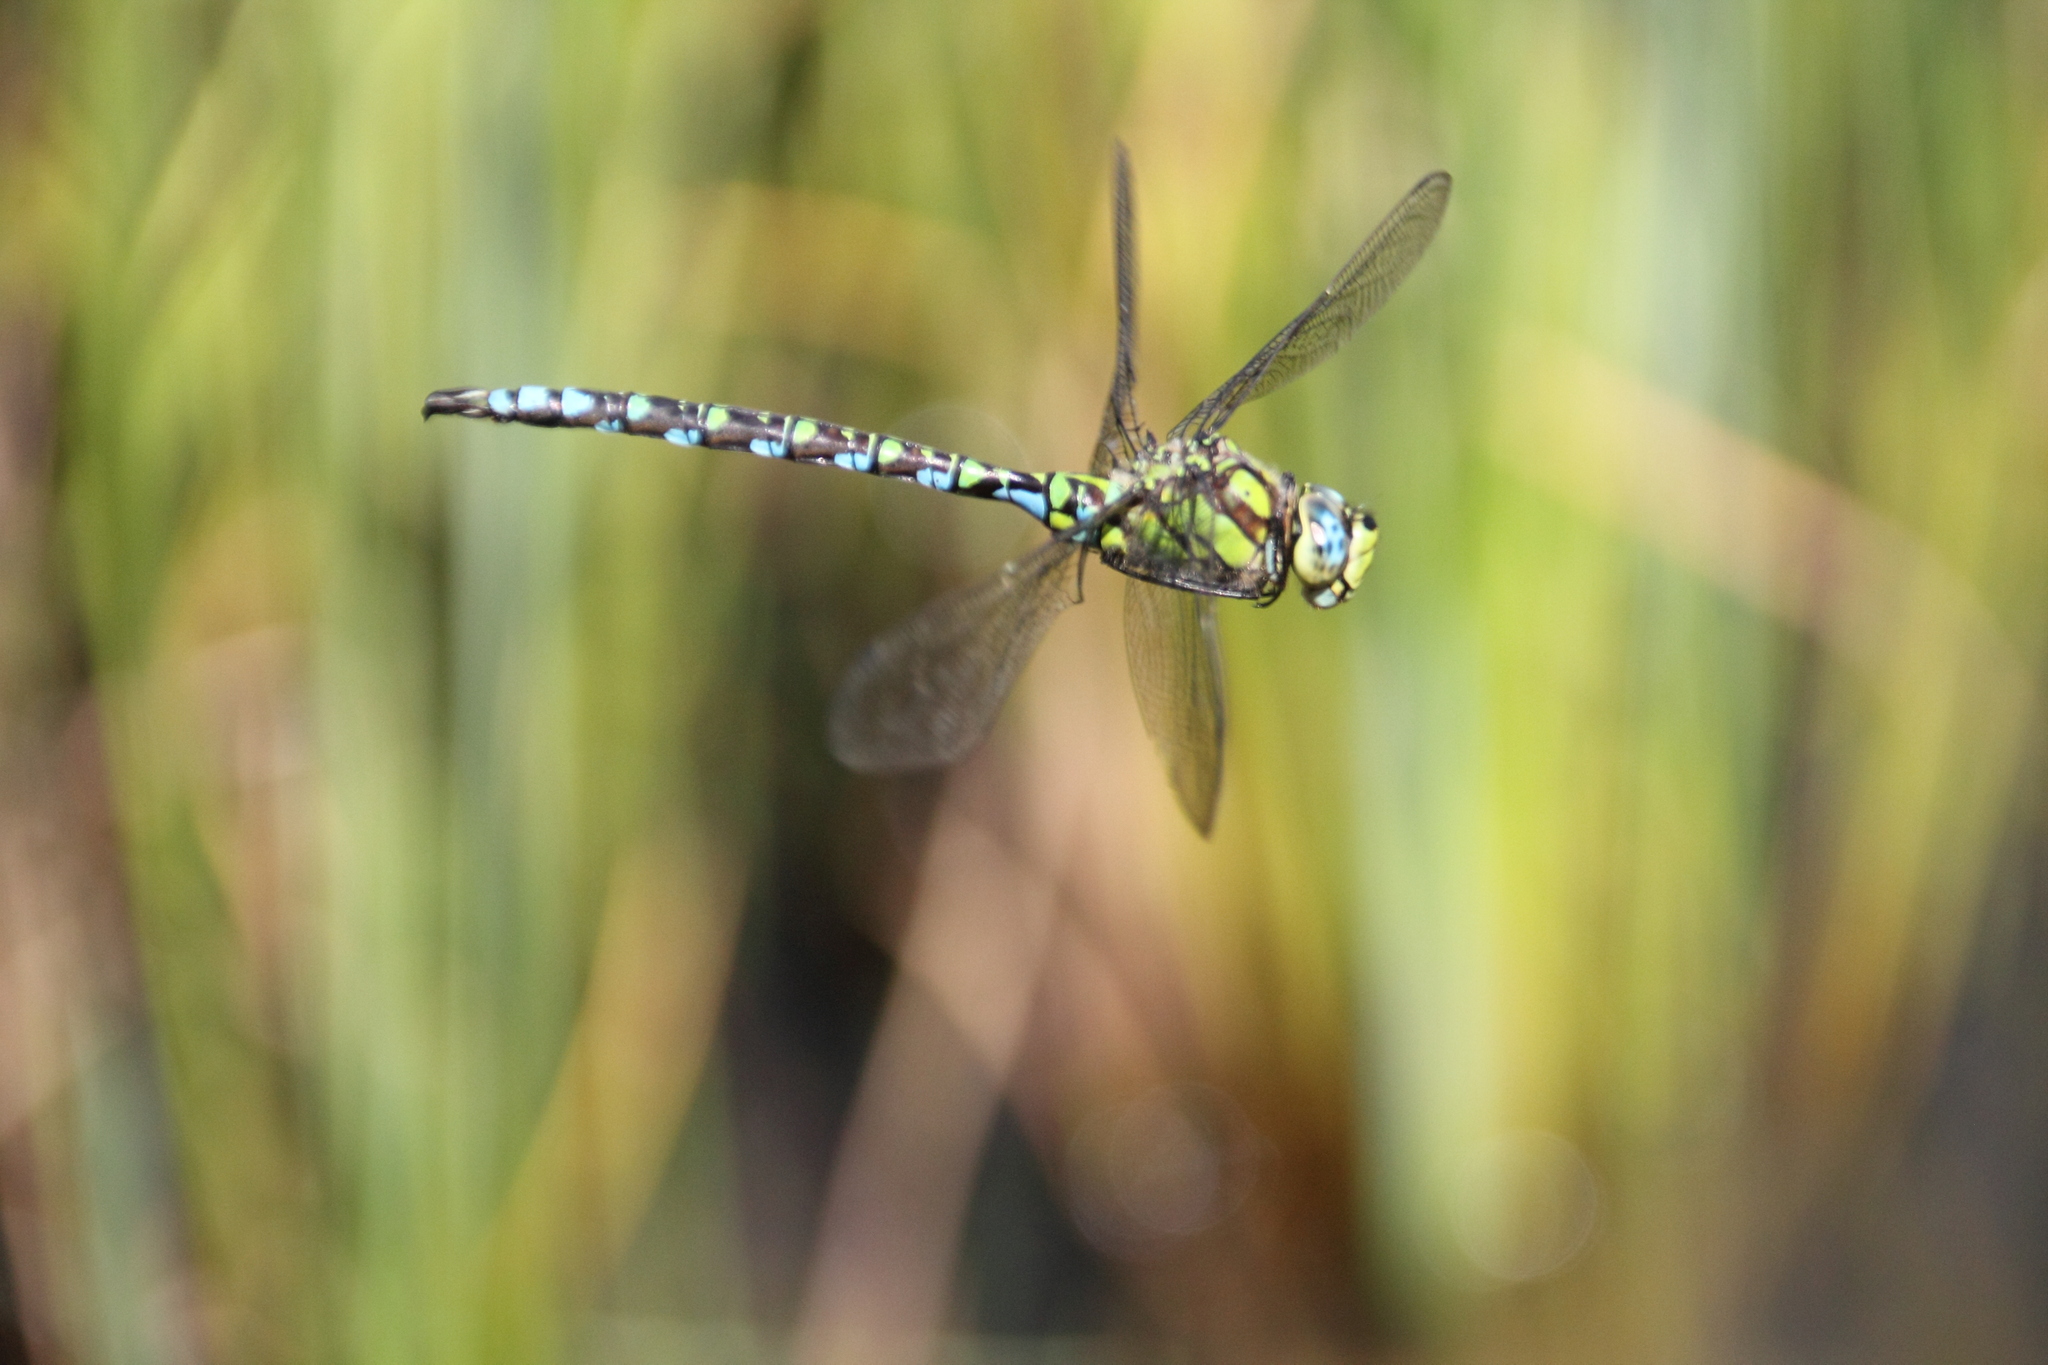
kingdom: Animalia
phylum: Arthropoda
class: Insecta
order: Odonata
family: Aeshnidae
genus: Aeshna
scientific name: Aeshna cyanea
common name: Southern hawker
